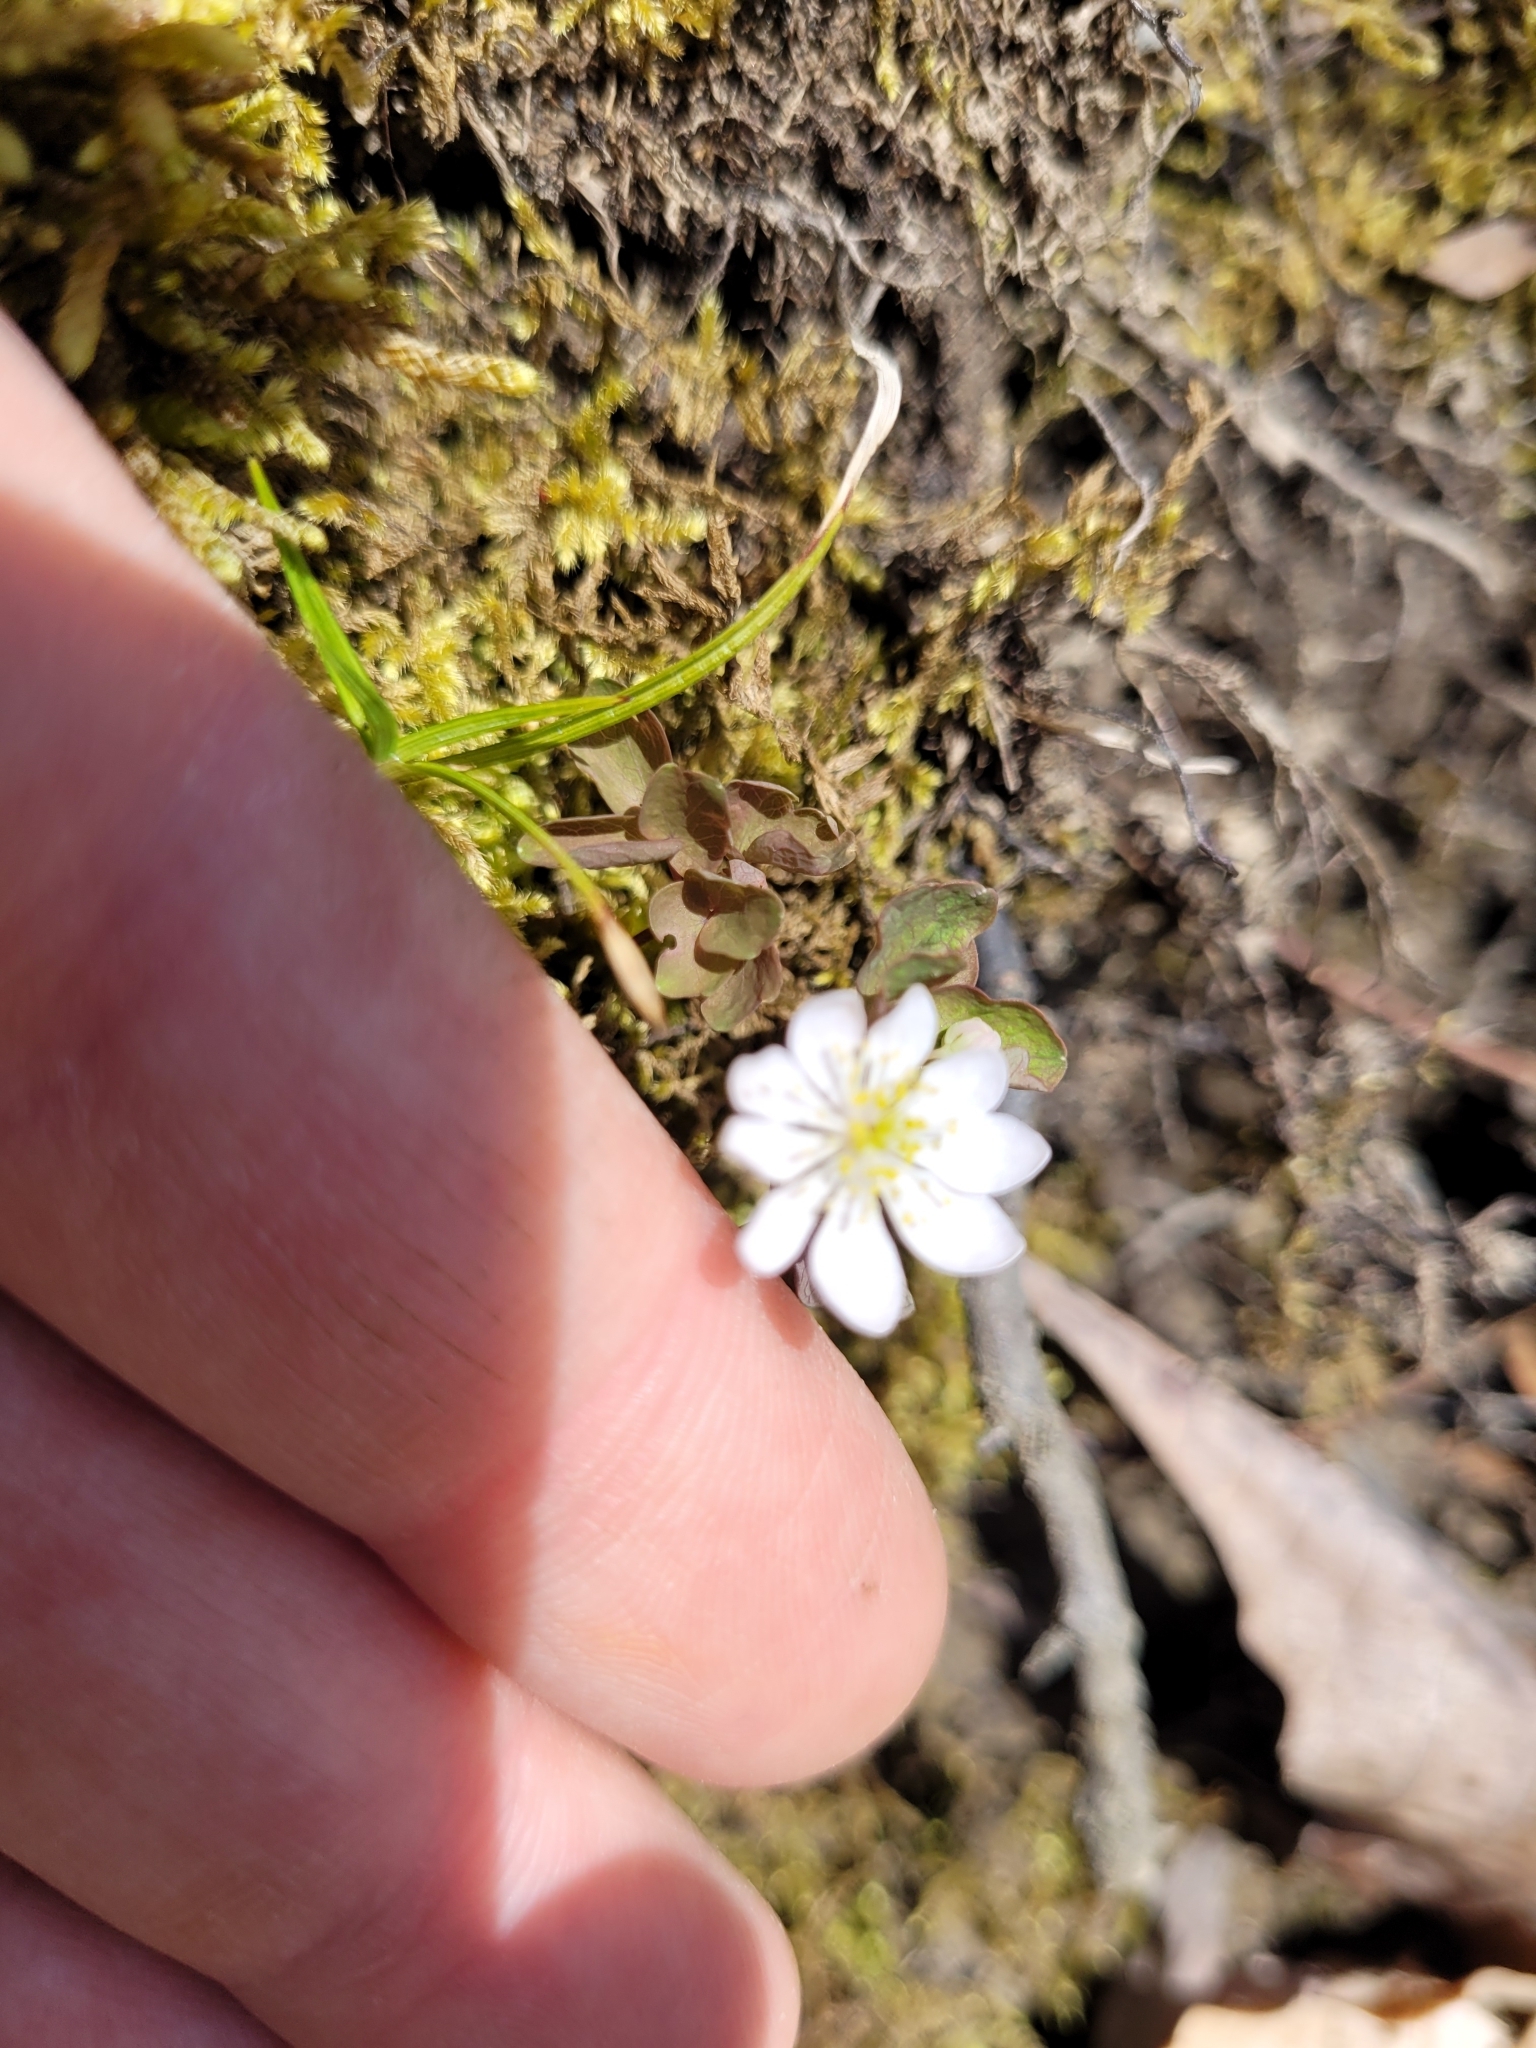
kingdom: Plantae
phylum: Tracheophyta
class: Magnoliopsida
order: Ranunculales
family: Ranunculaceae
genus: Thalictrum
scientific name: Thalictrum thalictroides
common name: Rue-anemone
